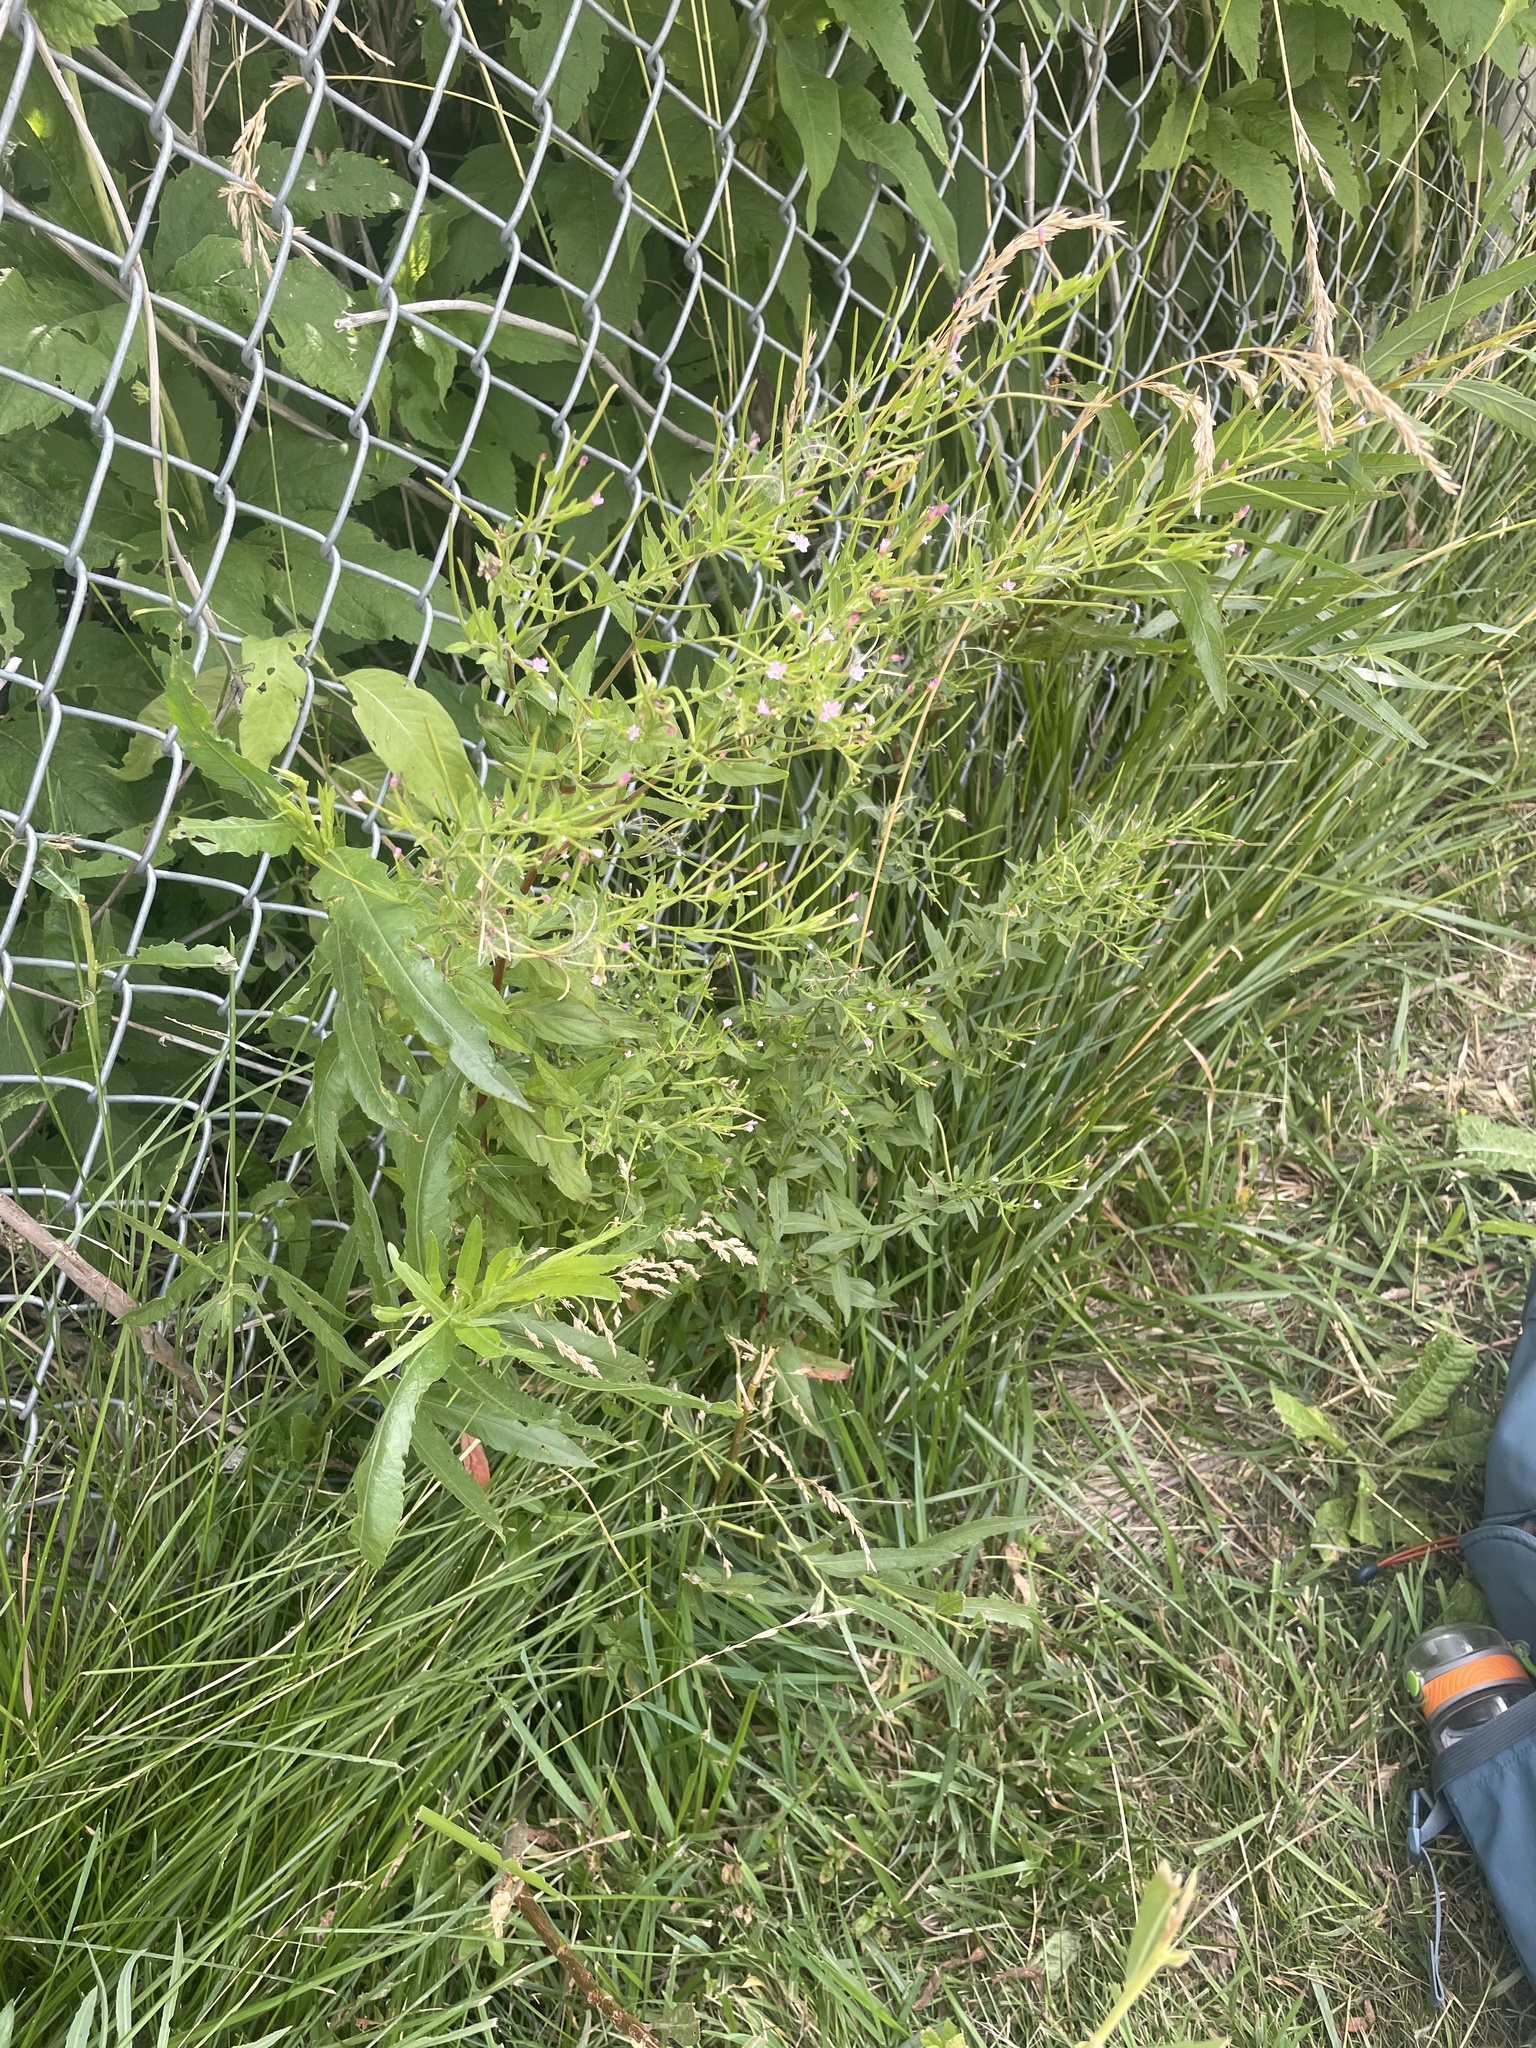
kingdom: Plantae
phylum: Tracheophyta
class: Magnoliopsida
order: Myrtales
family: Onagraceae
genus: Epilobium
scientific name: Epilobium ciliatum
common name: American willowherb
